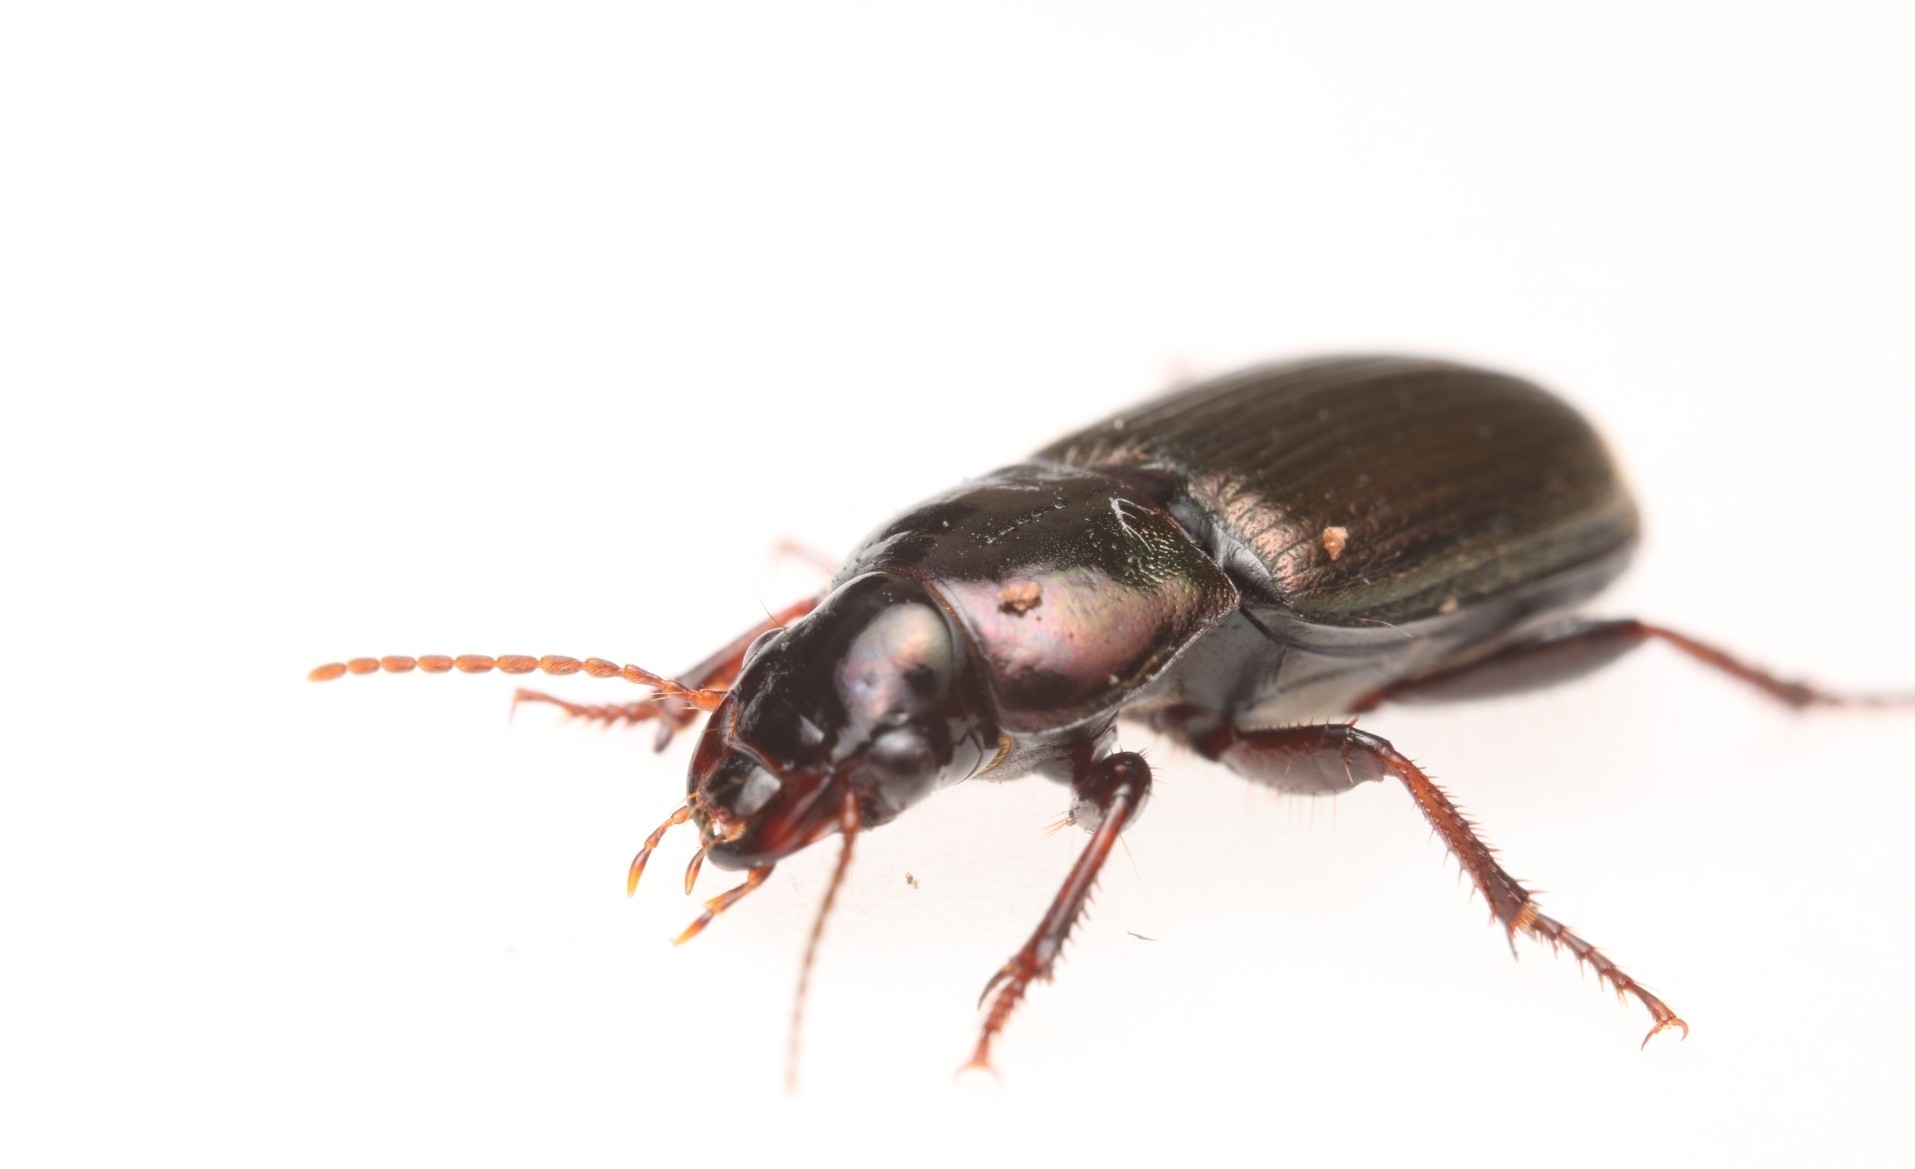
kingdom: Animalia
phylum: Arthropoda
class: Insecta
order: Coleoptera
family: Carabidae
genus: Harpalus
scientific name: Harpalus affinis
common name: Polychrome harp ground beetle
